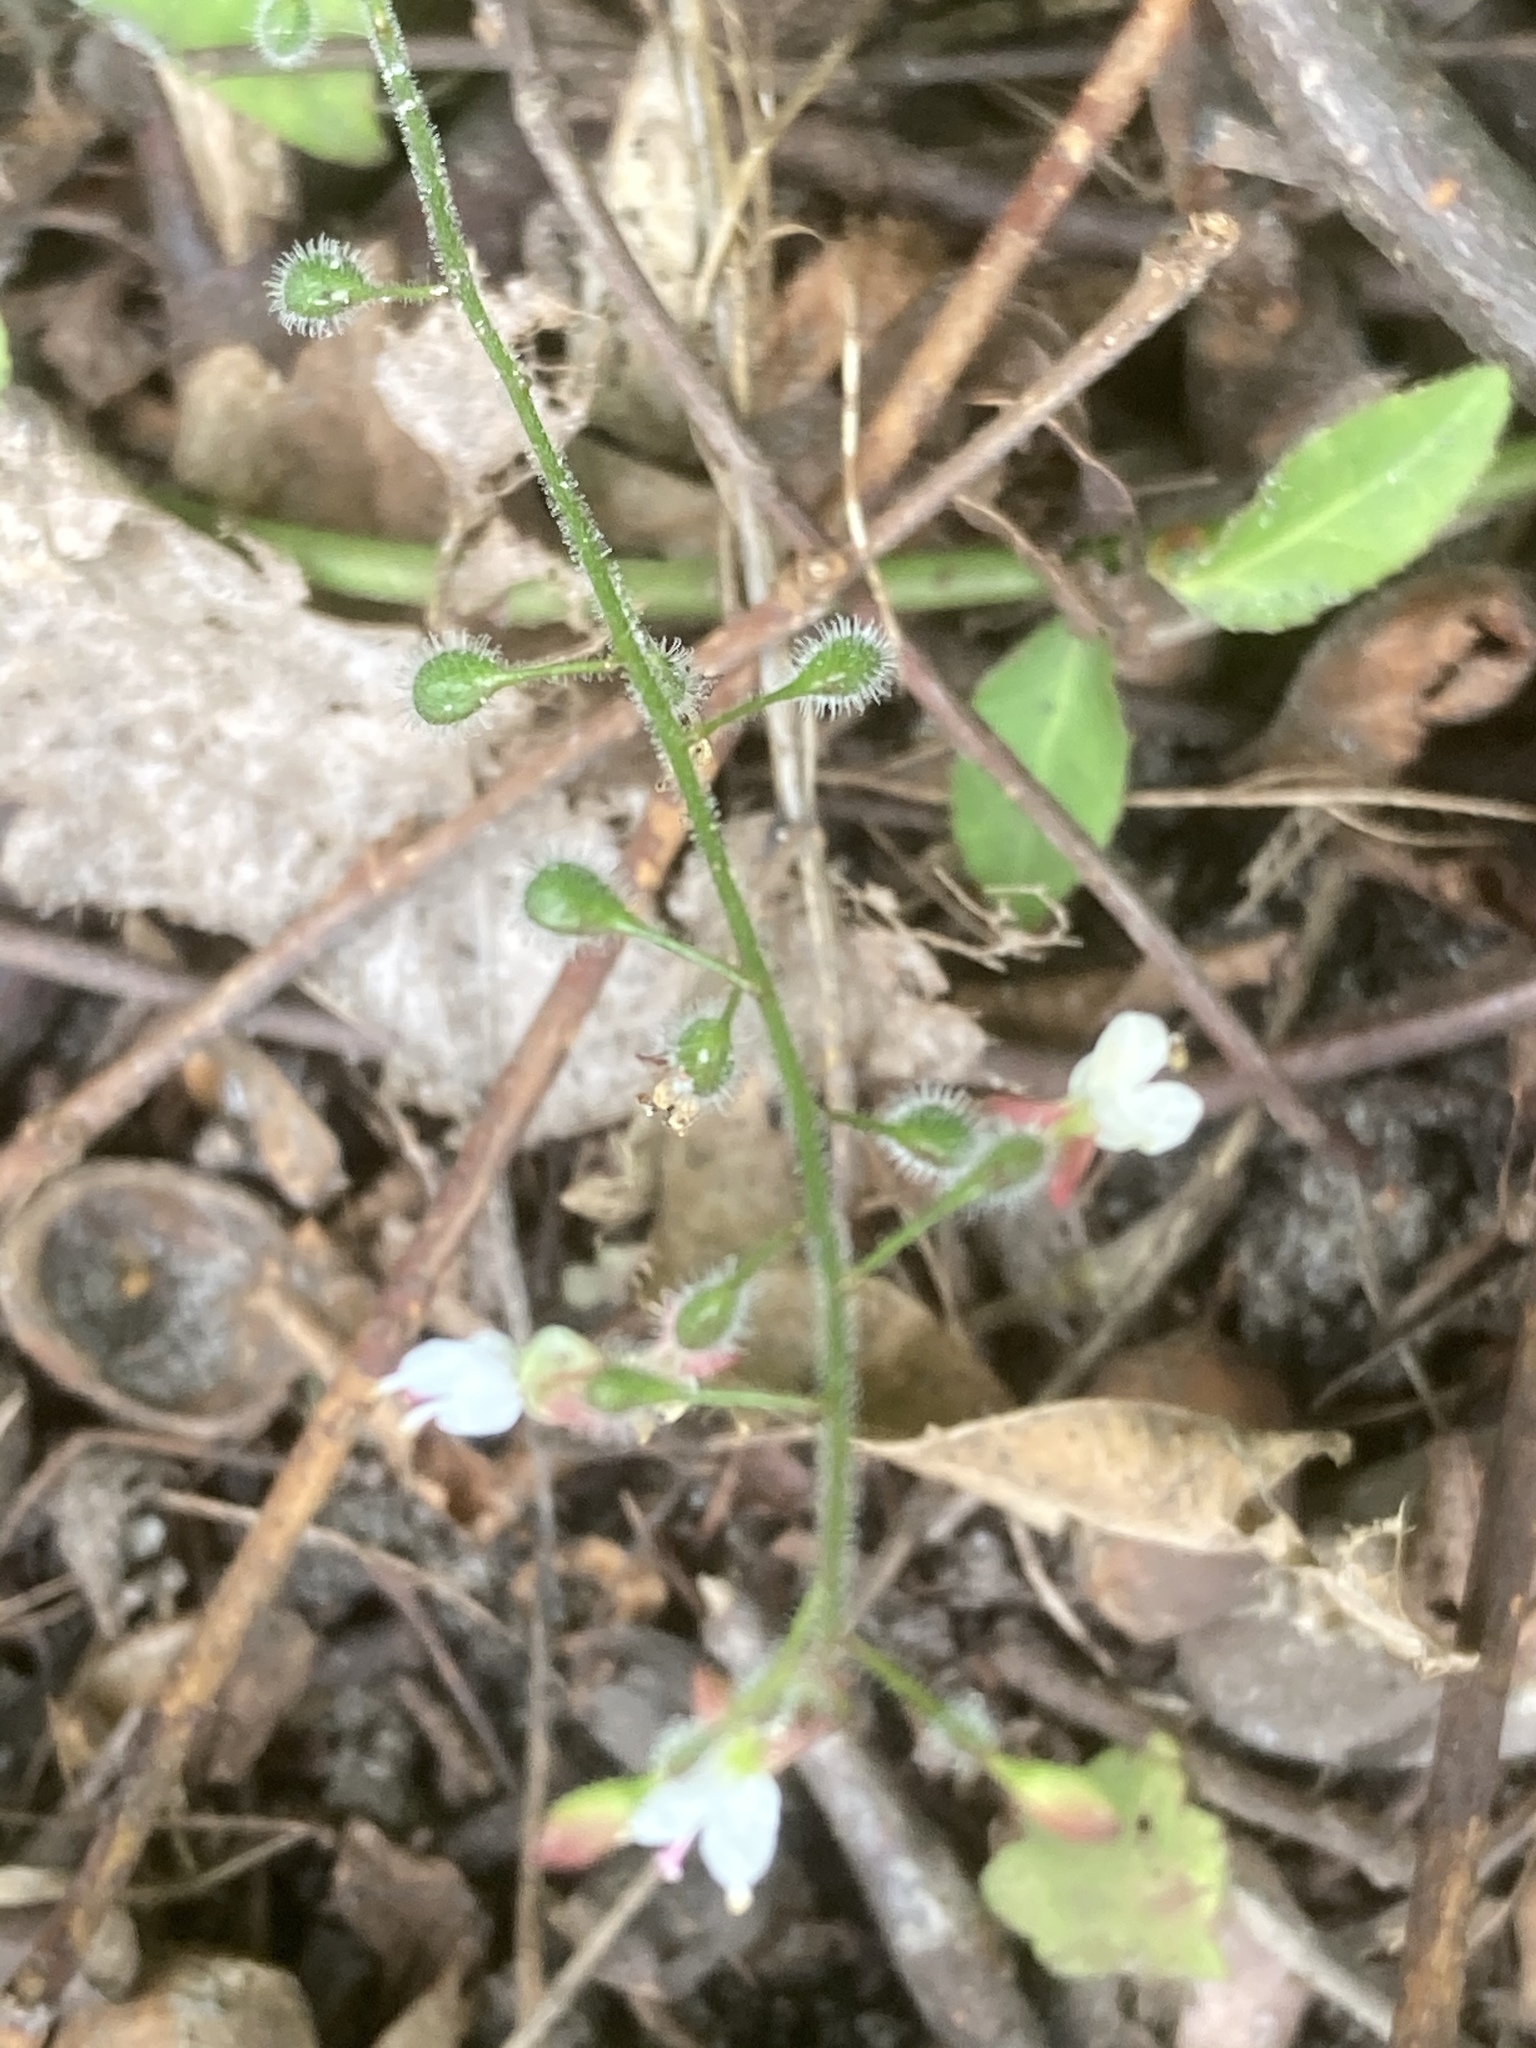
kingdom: Plantae
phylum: Tracheophyta
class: Magnoliopsida
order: Myrtales
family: Onagraceae
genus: Circaea
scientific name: Circaea lutetiana
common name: Enchanter's-nightshade
